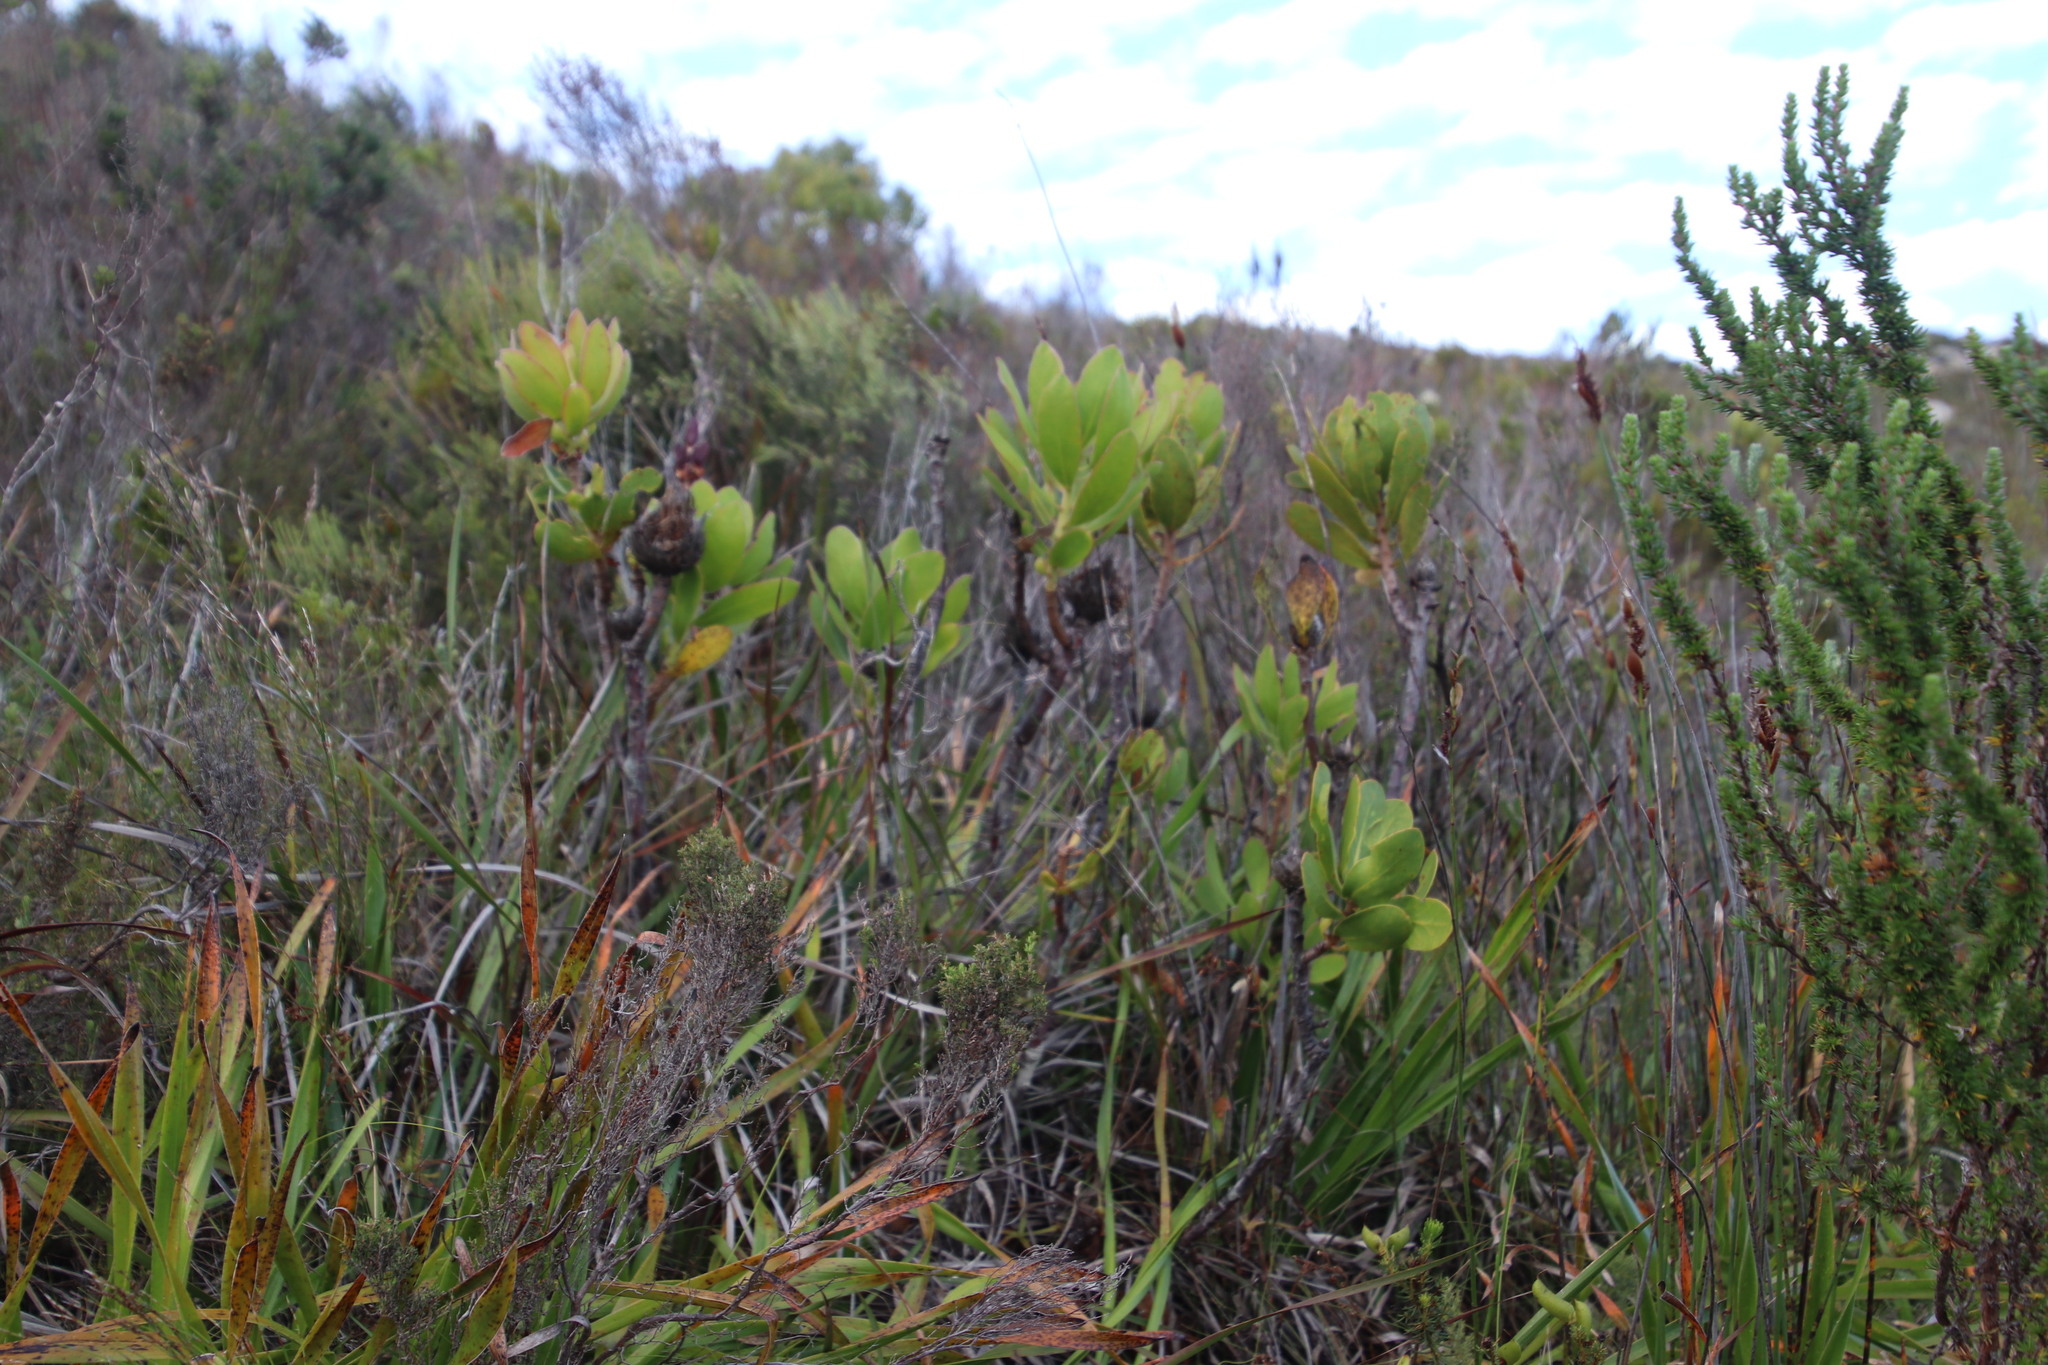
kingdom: Plantae
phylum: Tracheophyta
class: Magnoliopsida
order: Proteales
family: Proteaceae
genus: Protea
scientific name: Protea speciosa
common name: Brown-beard sugarbush
